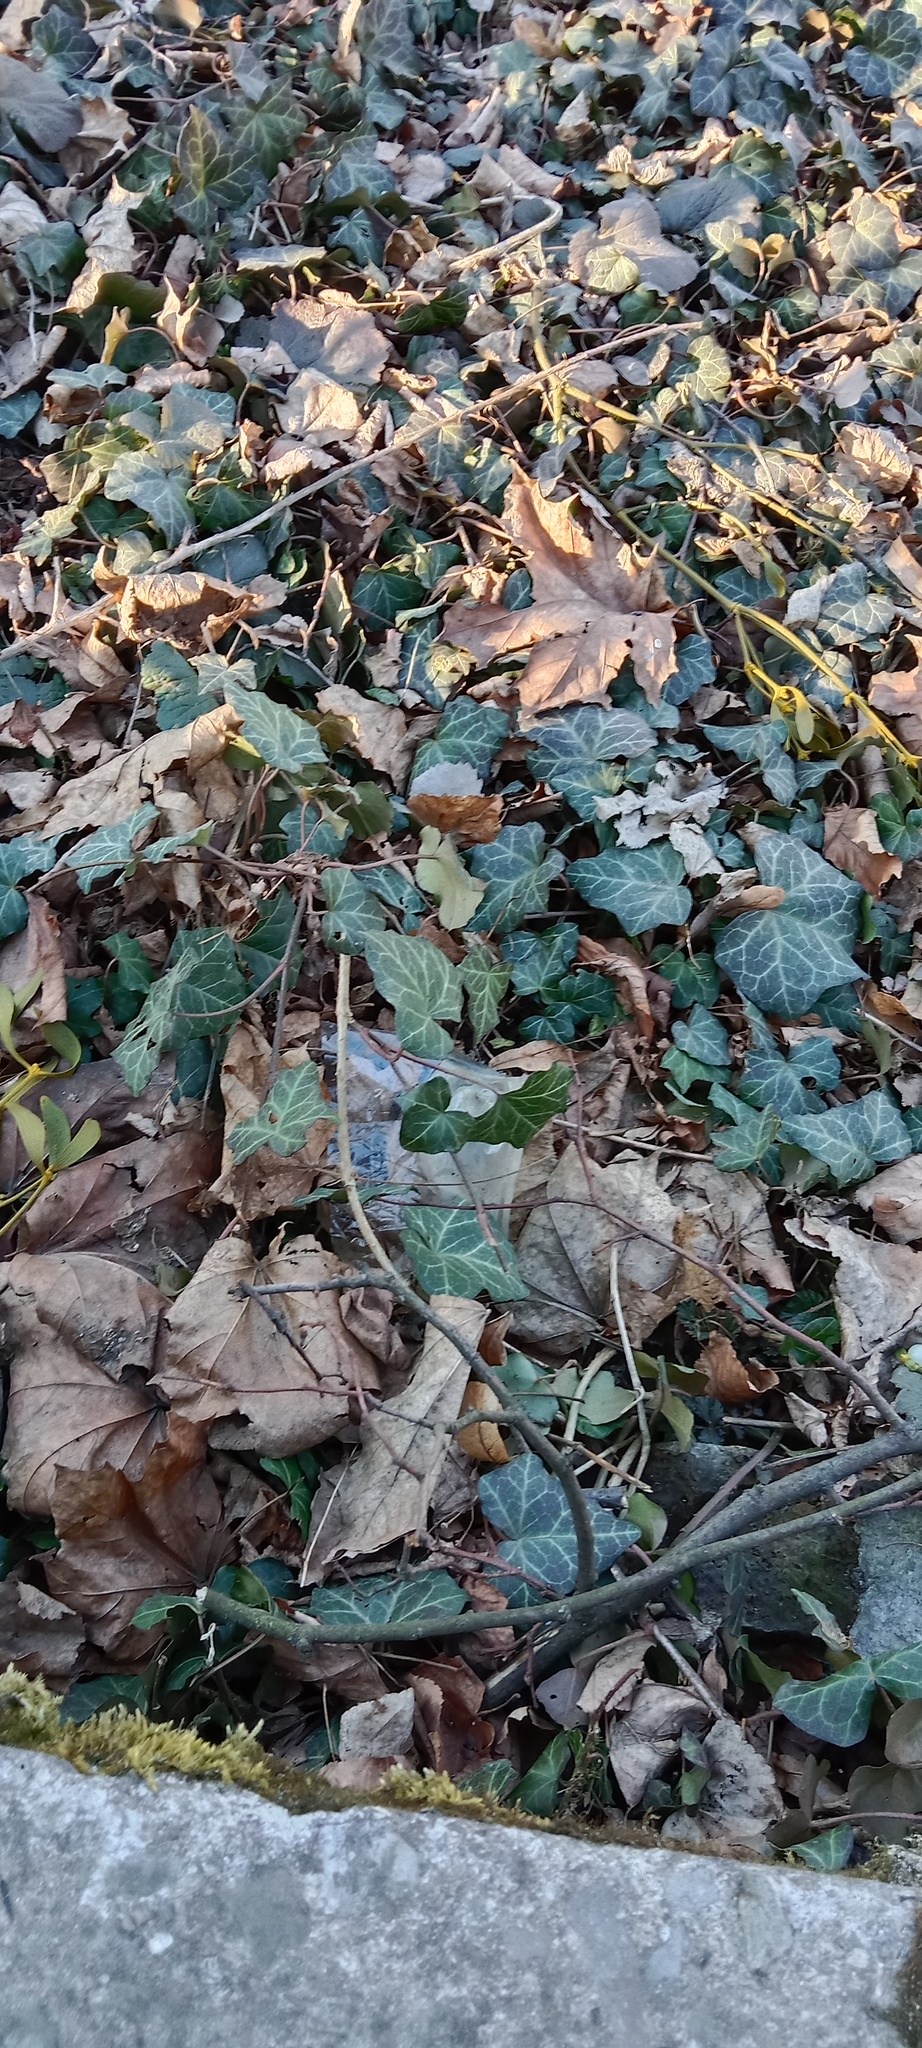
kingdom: Plantae
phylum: Tracheophyta
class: Magnoliopsida
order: Apiales
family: Araliaceae
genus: Hedera
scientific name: Hedera helix
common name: Ivy
